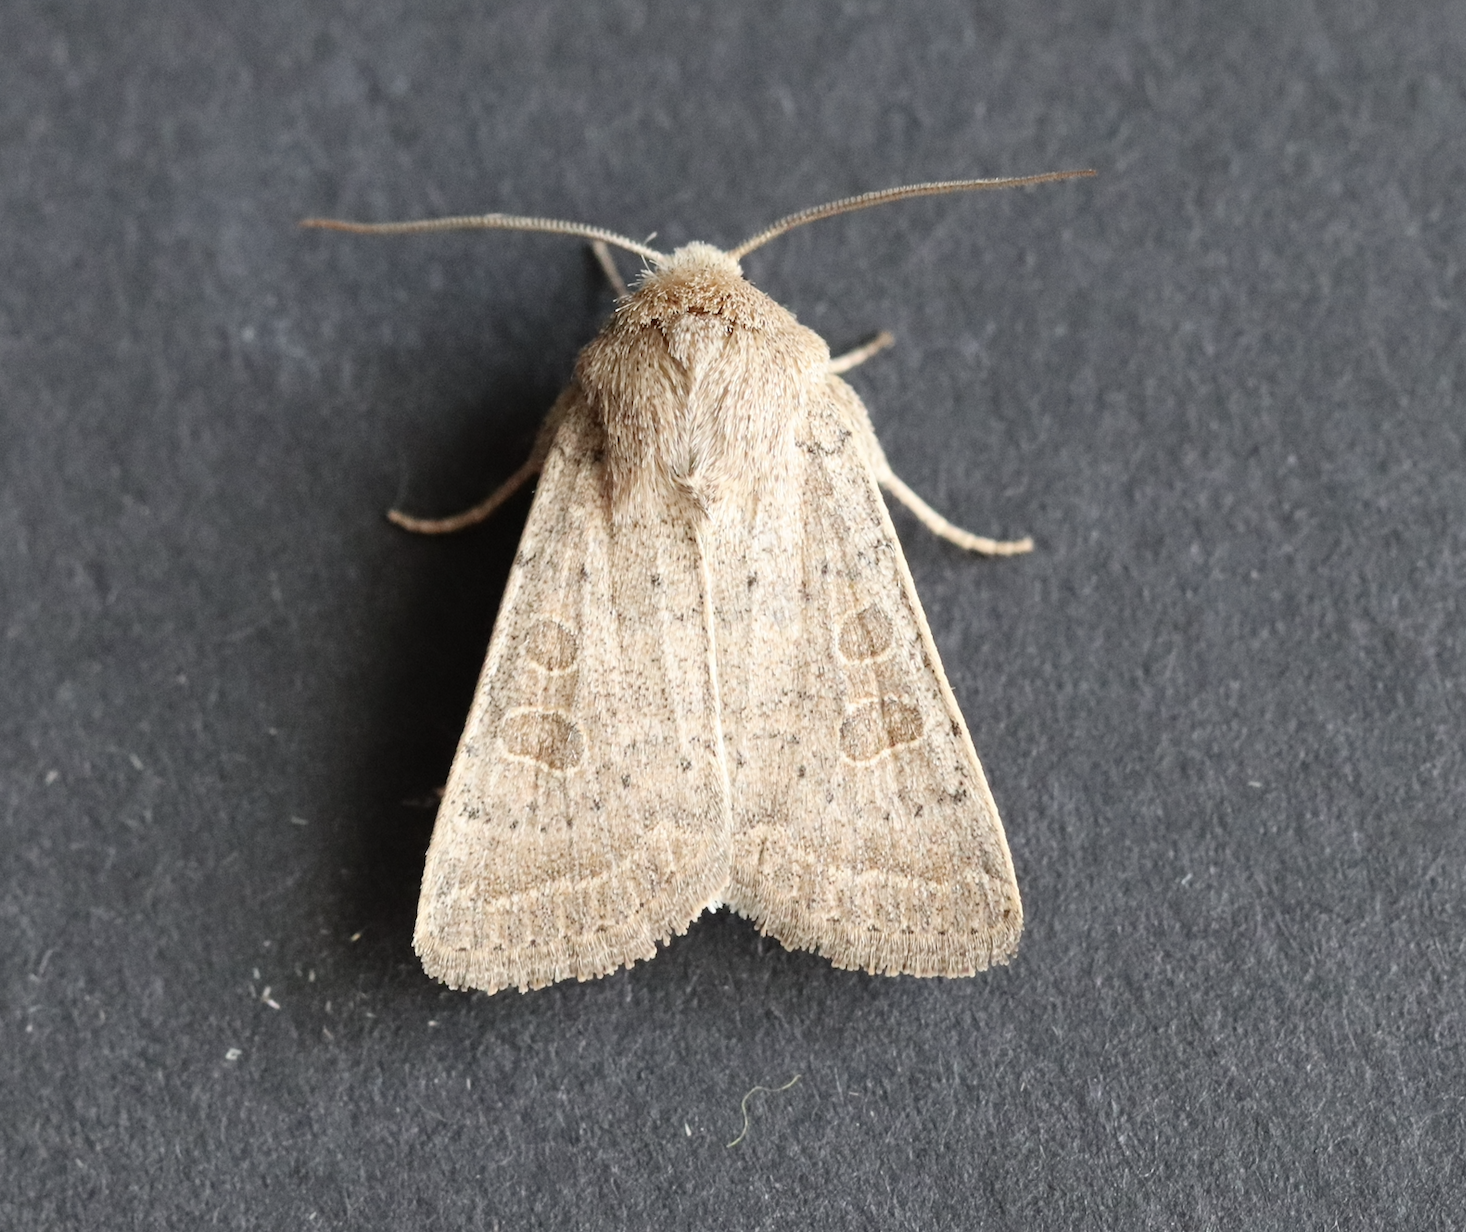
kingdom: Animalia
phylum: Arthropoda
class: Insecta
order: Lepidoptera
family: Noctuidae
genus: Hoplodrina
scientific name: Hoplodrina ambigua
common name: Vine's rustic
